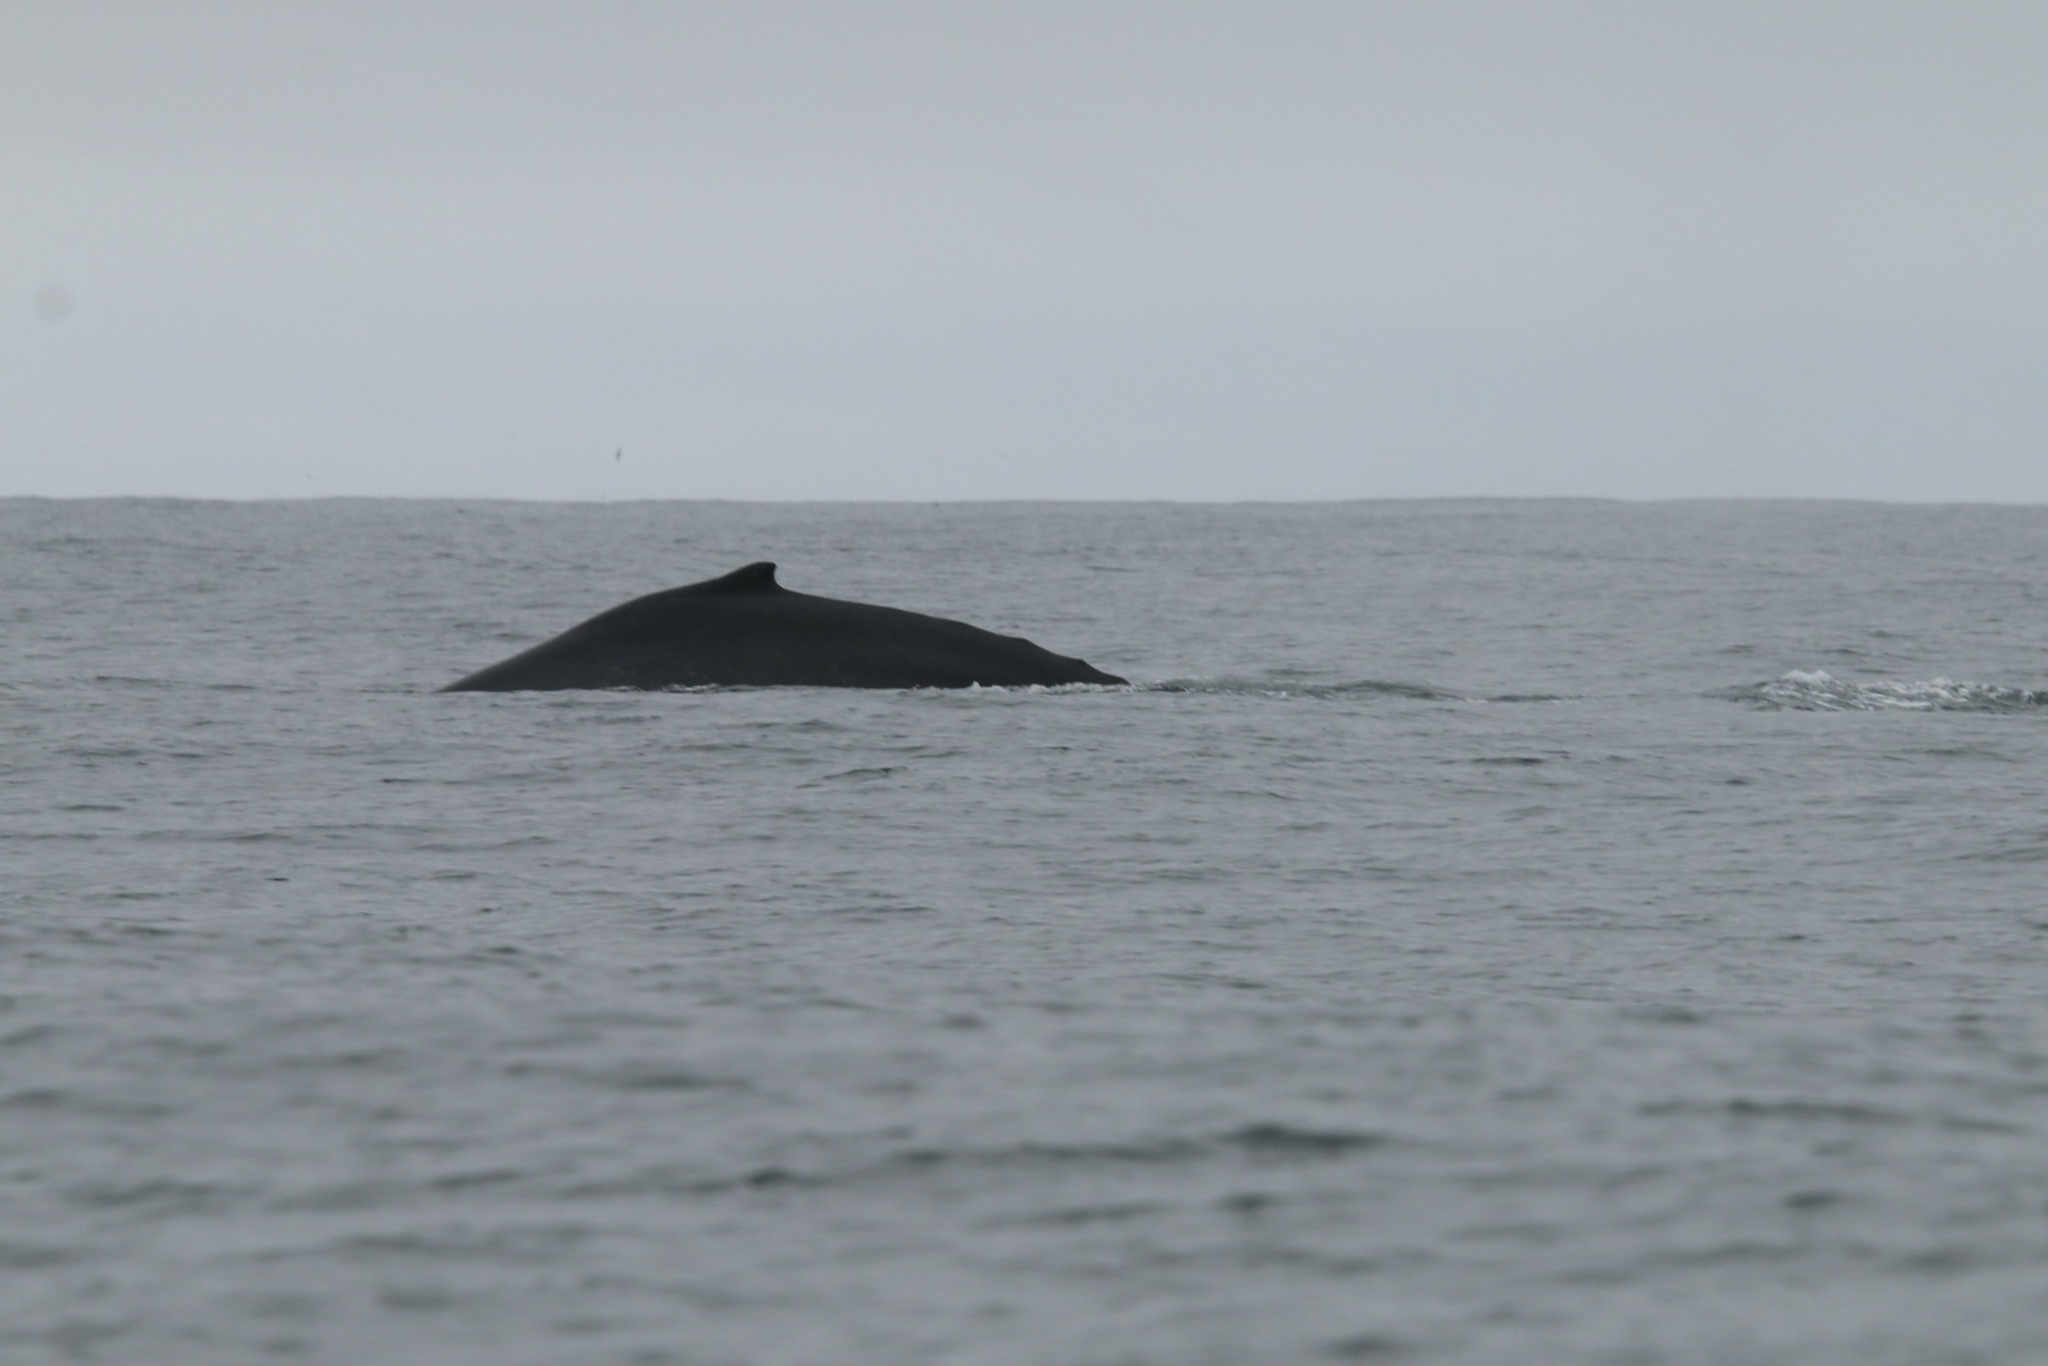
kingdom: Animalia
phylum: Chordata
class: Mammalia
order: Cetacea
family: Balaenopteridae
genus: Megaptera
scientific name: Megaptera novaeangliae
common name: Humpback whale
